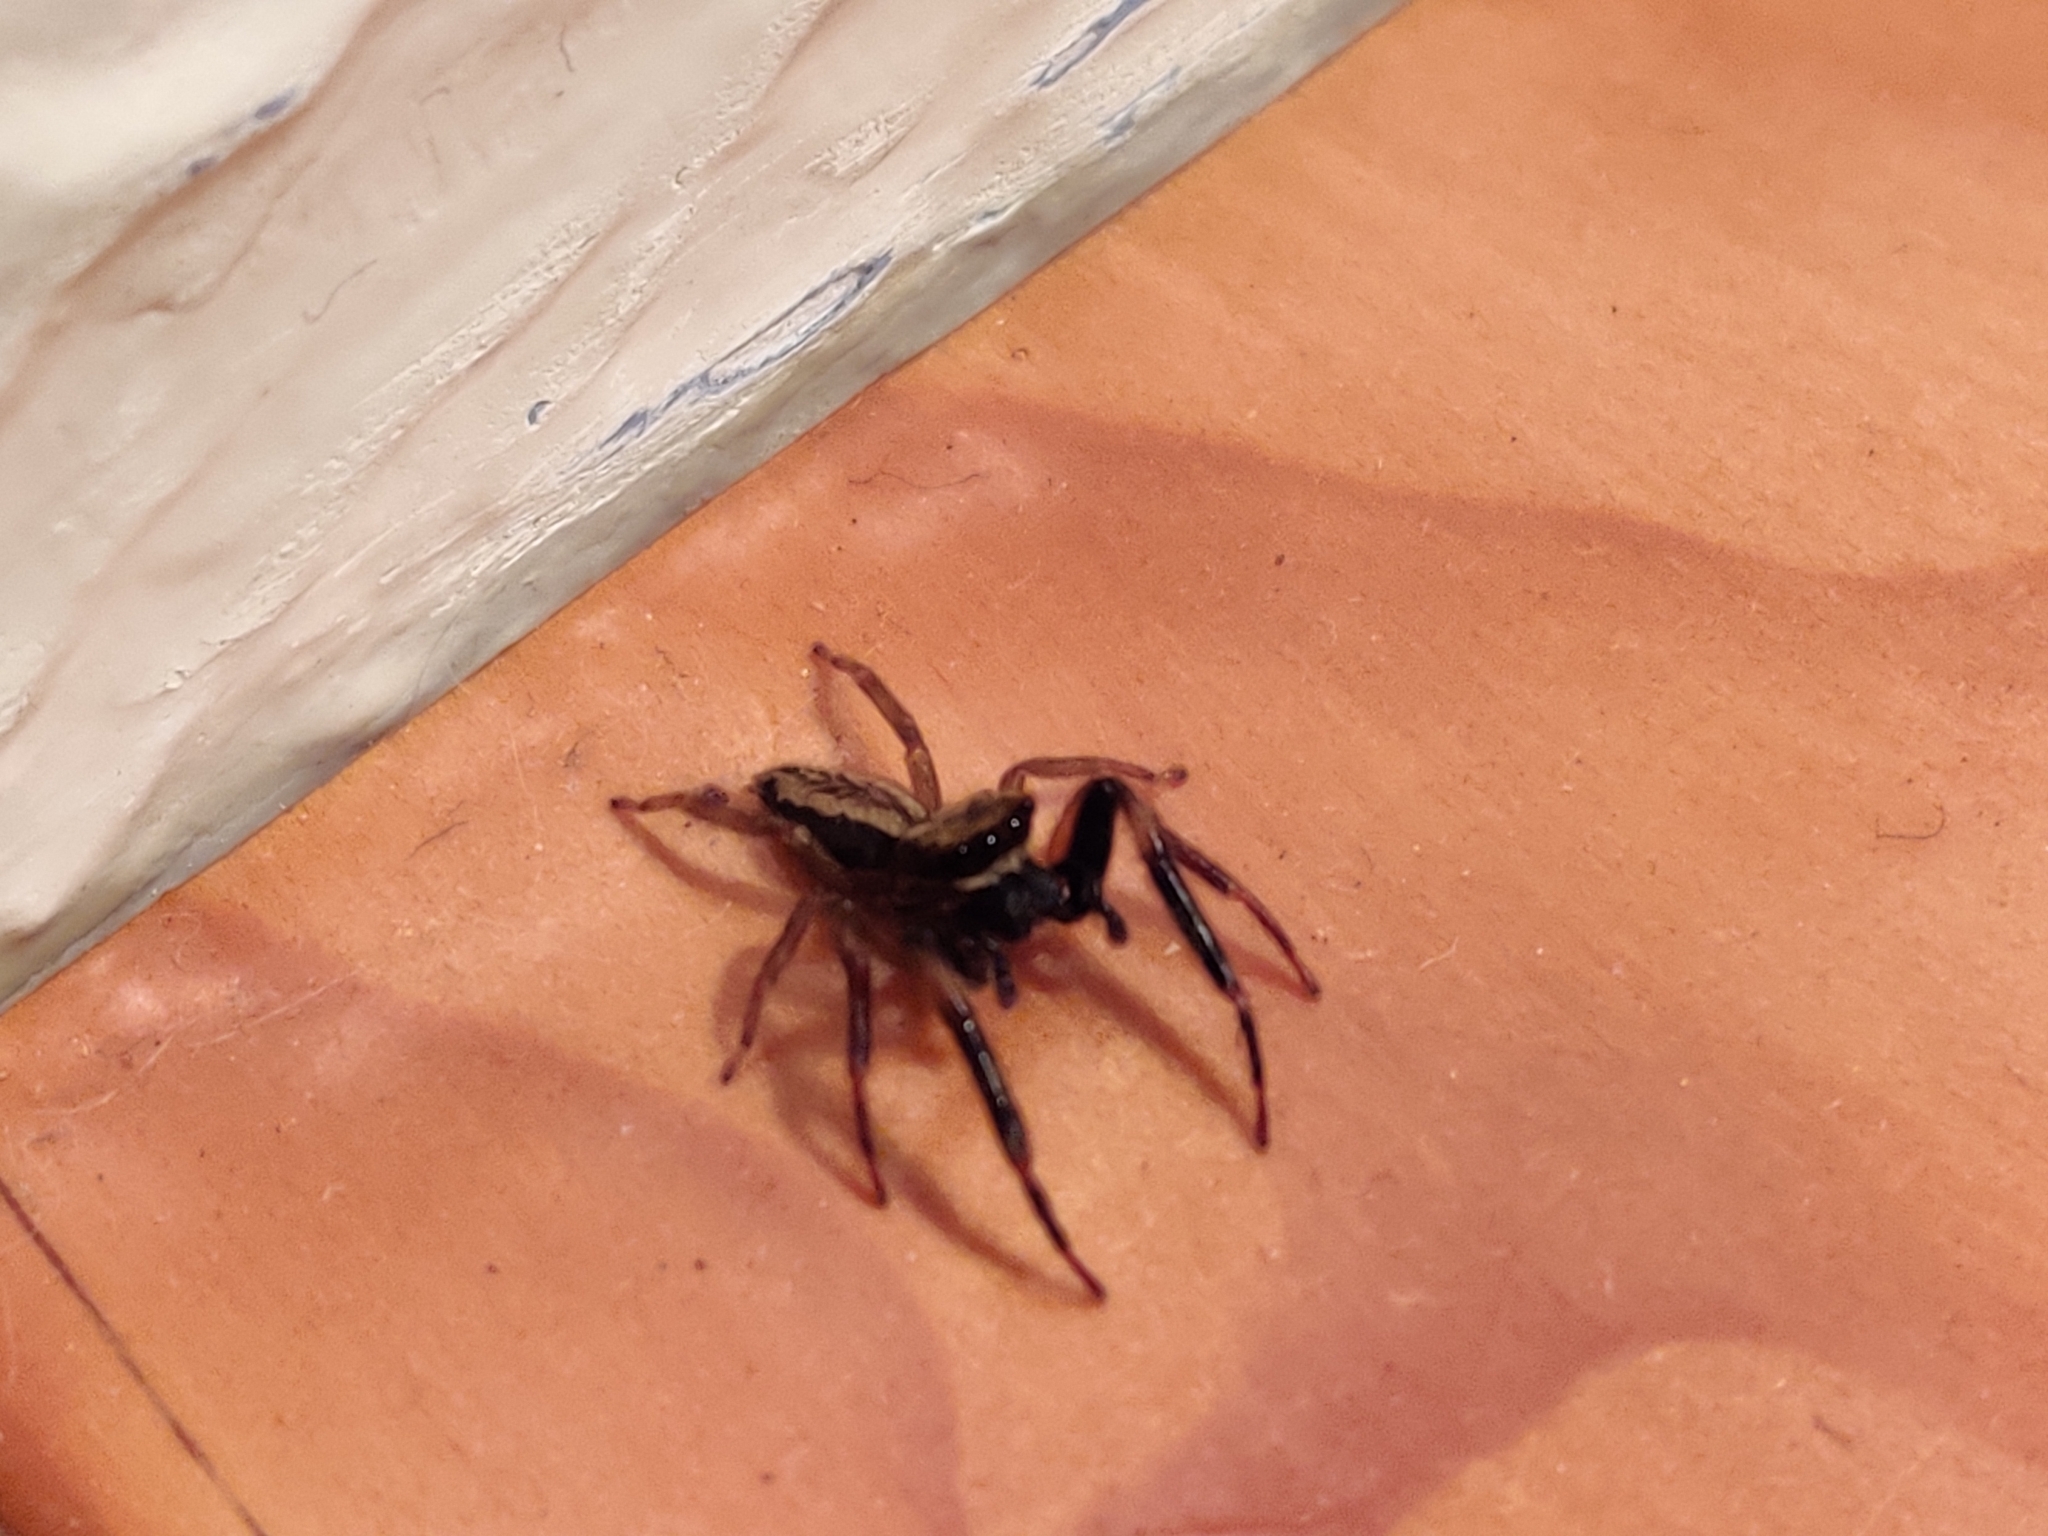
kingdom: Animalia
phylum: Arthropoda
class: Arachnida
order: Araneae
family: Salticidae
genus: Trite
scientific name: Trite auricoma
